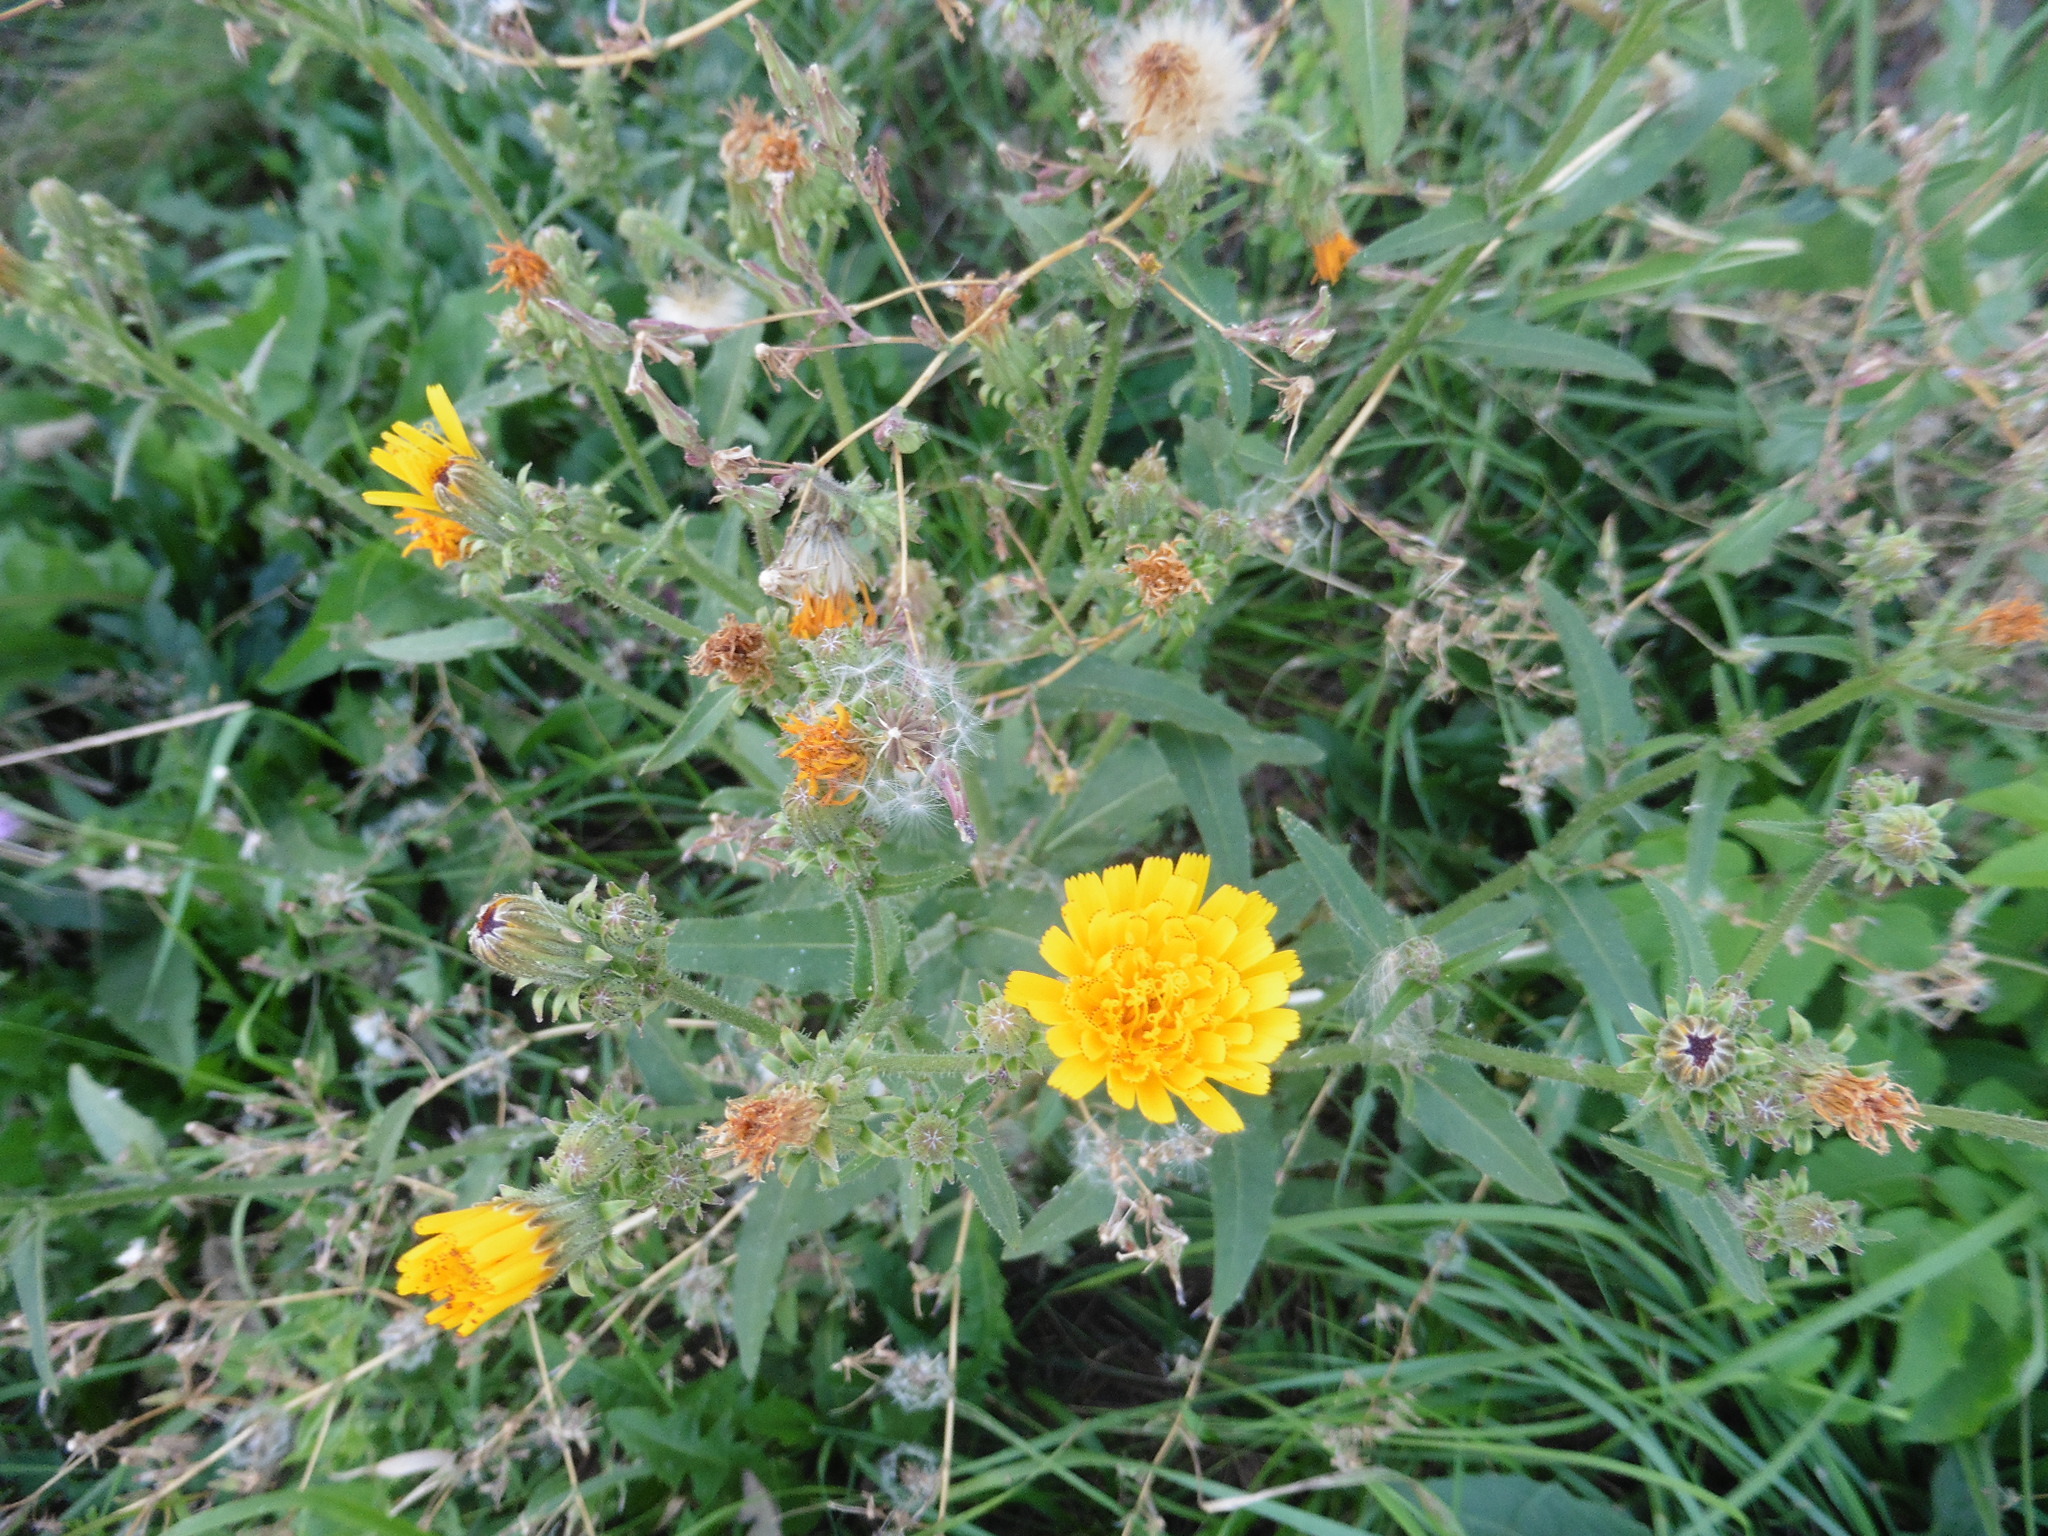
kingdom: Plantae
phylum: Tracheophyta
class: Magnoliopsida
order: Asterales
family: Asteraceae
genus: Picris
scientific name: Picris hieracioides
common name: Hawkweed oxtongue
